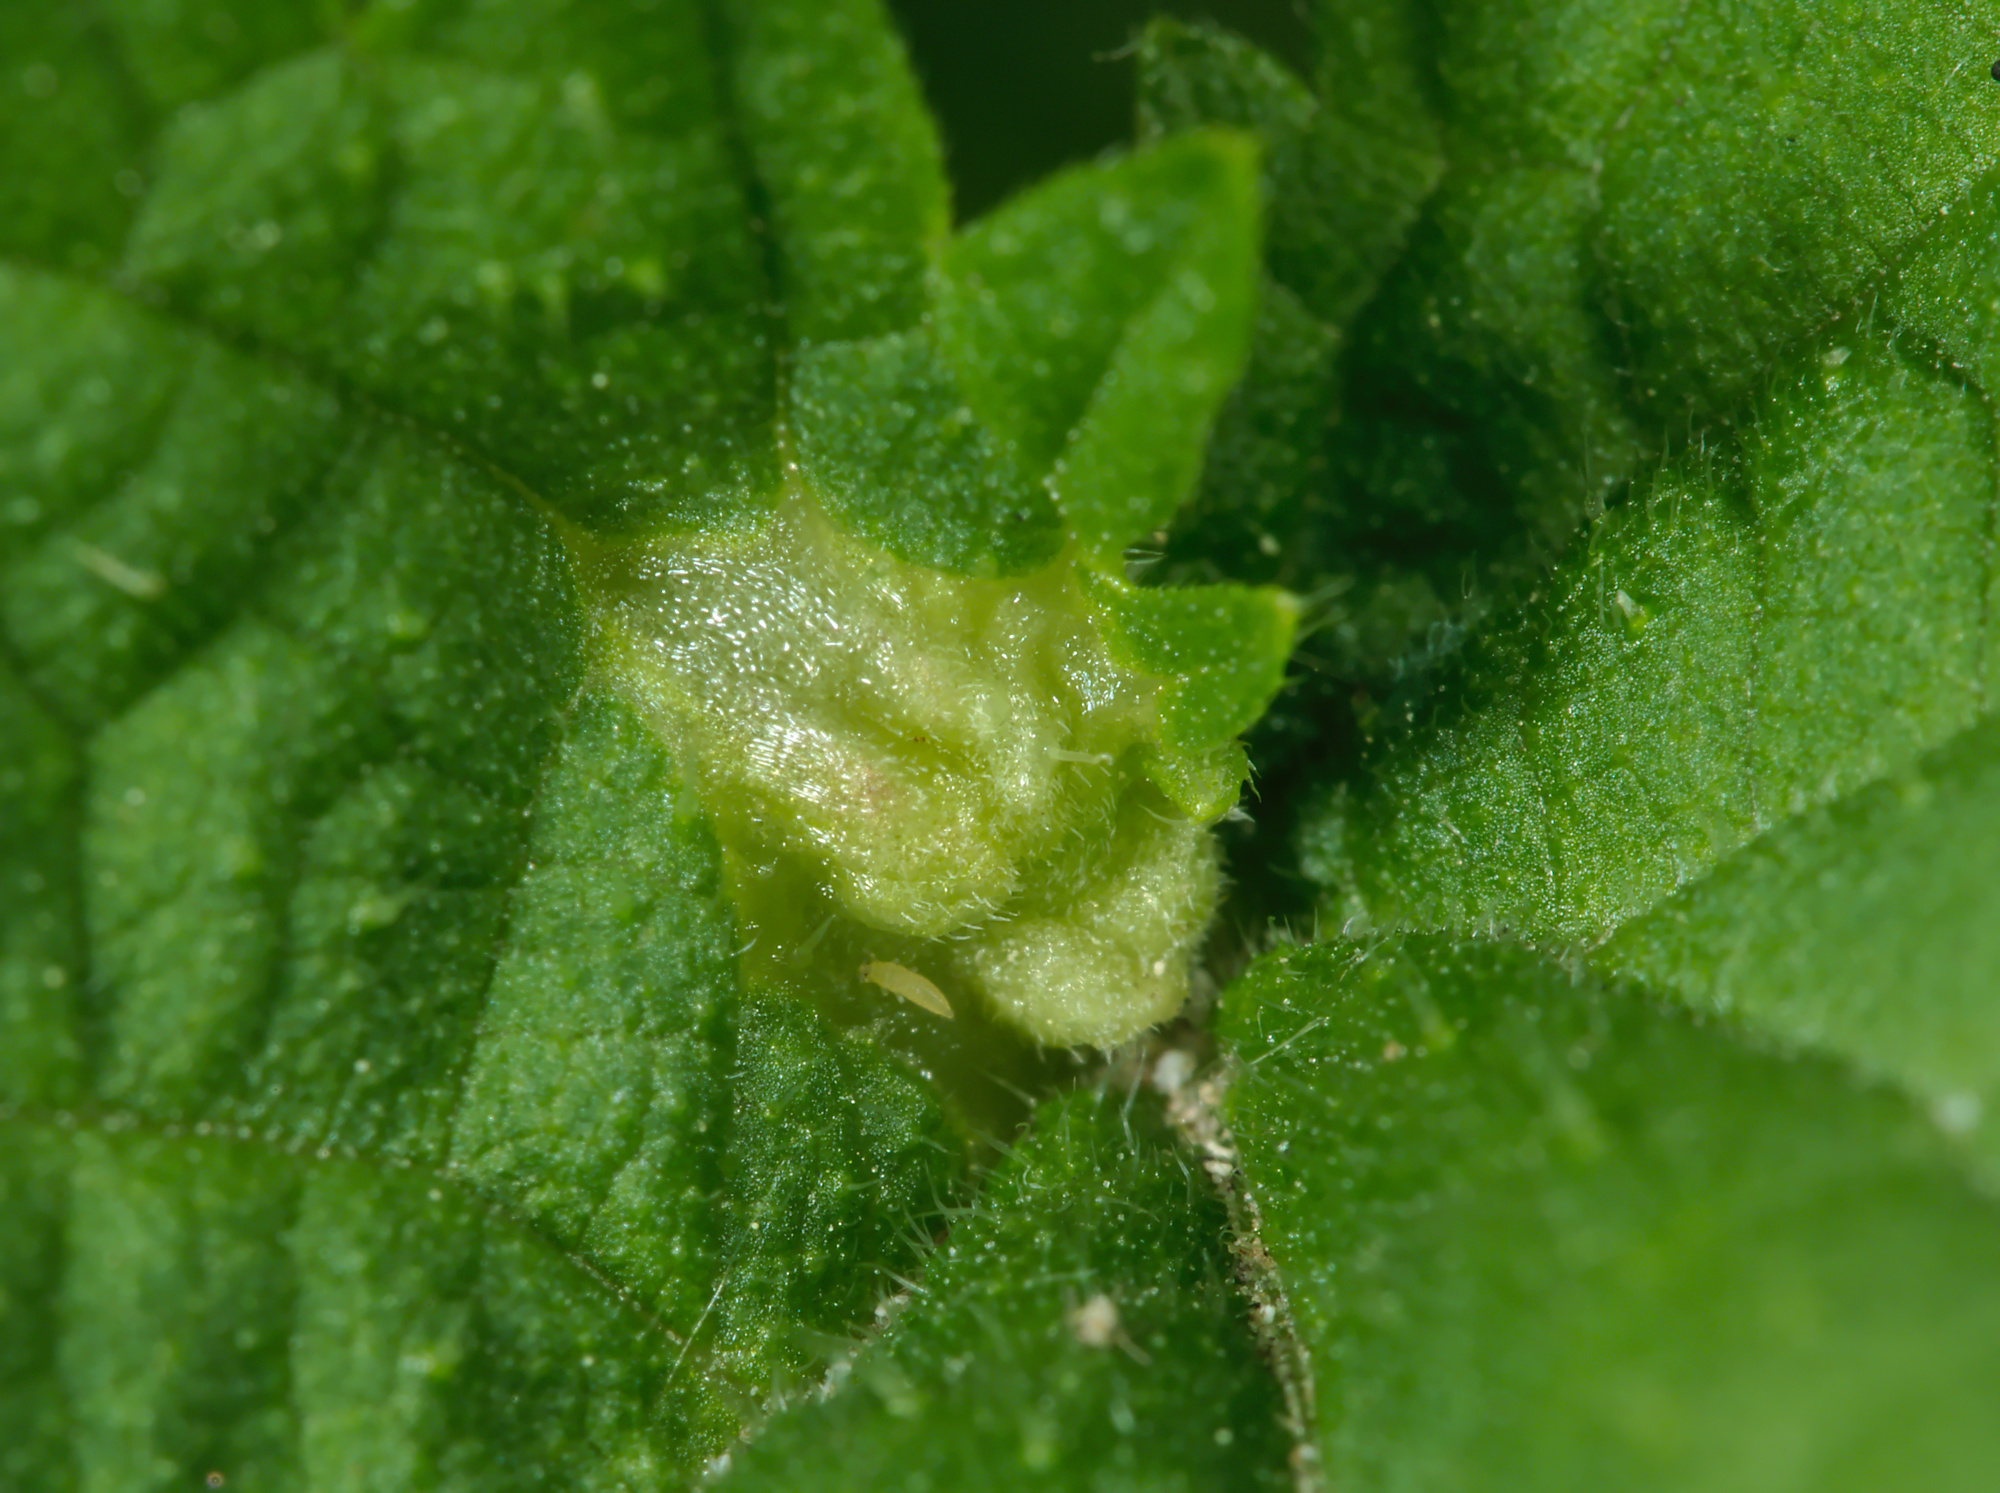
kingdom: Animalia
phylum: Arthropoda
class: Insecta
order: Diptera
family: Cecidomyiidae
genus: Dasineura
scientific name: Dasineura urticae
